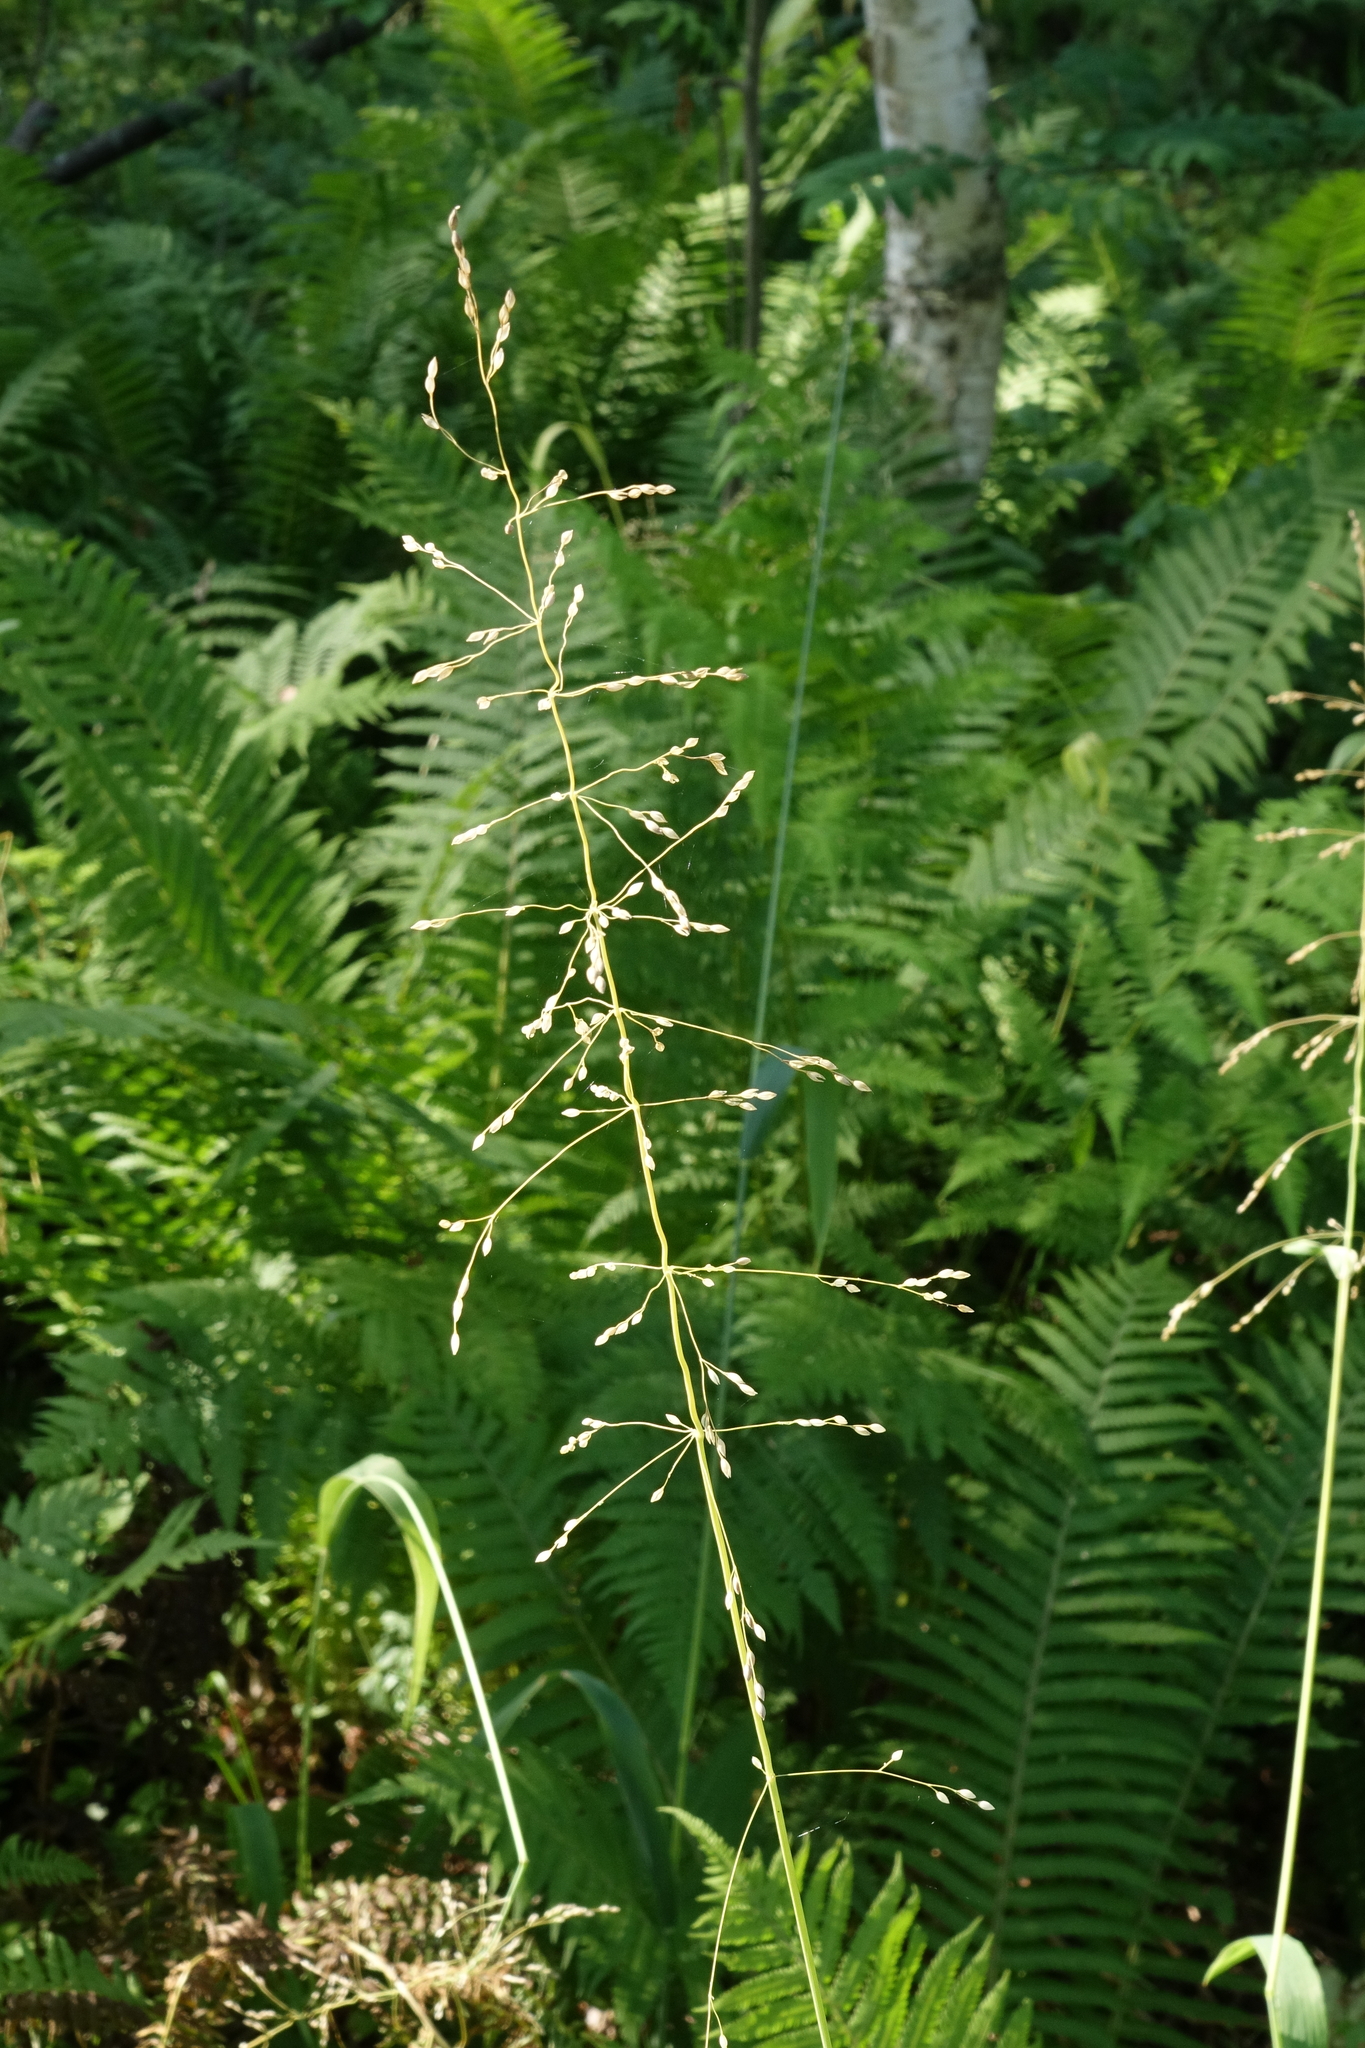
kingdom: Plantae
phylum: Tracheophyta
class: Liliopsida
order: Poales
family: Poaceae
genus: Milium
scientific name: Milium effusum
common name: Wood millet
